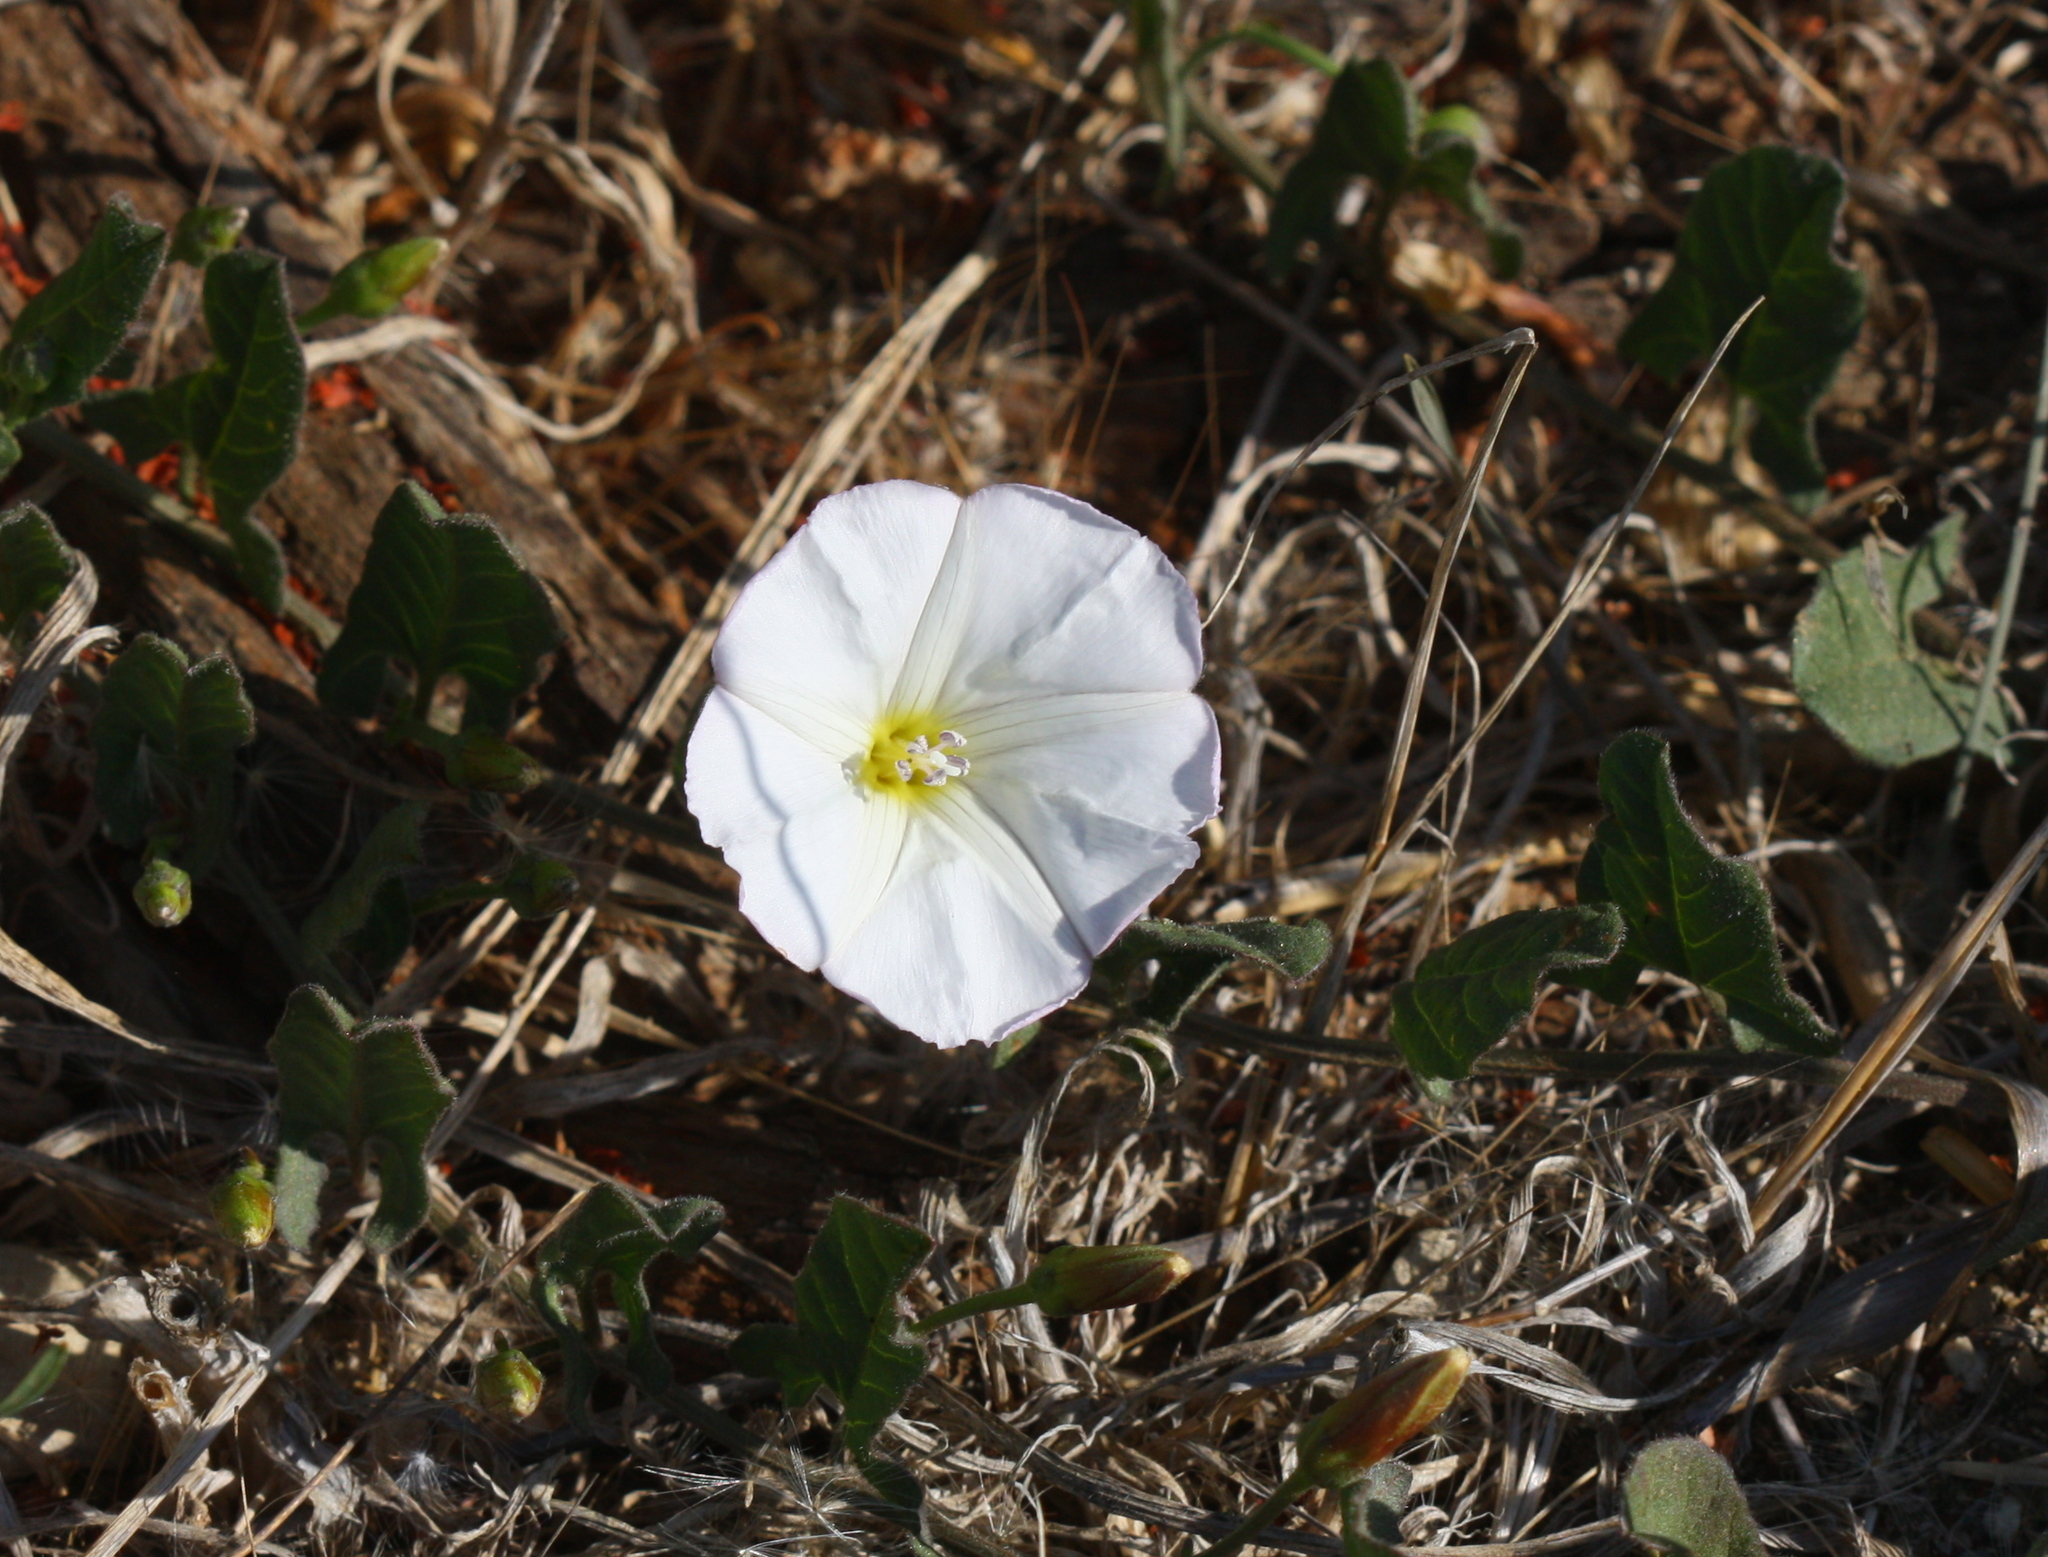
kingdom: Plantae
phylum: Tracheophyta
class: Magnoliopsida
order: Solanales
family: Convolvulaceae
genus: Convolvulus
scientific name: Convolvulus arvensis
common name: Field bindweed
